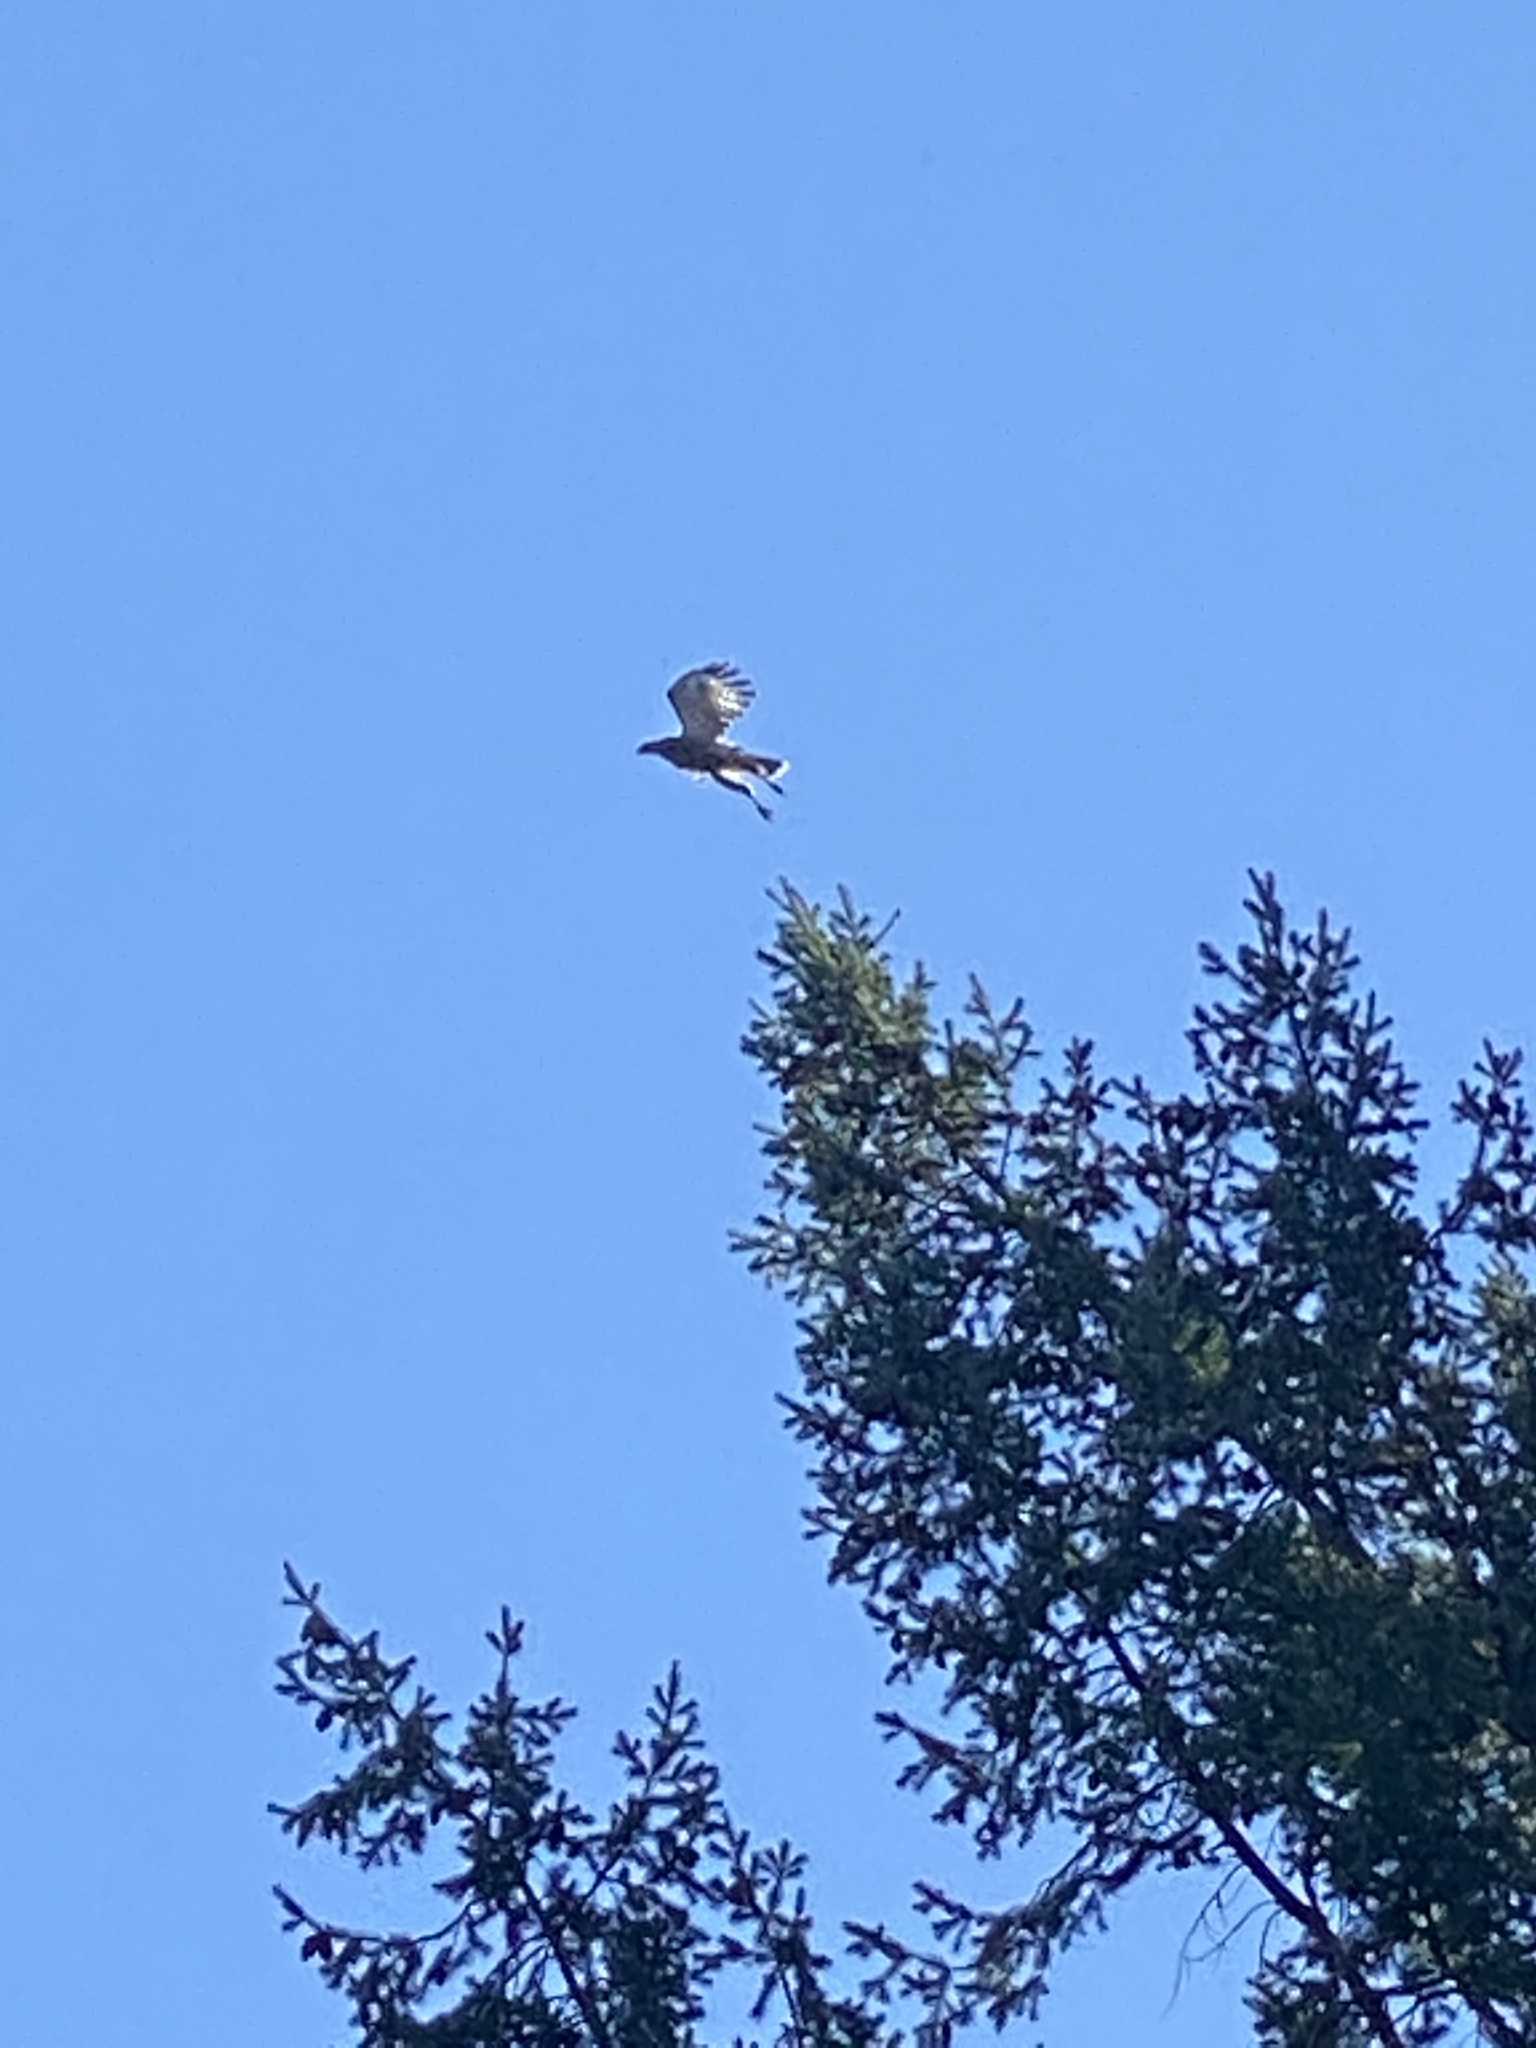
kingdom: Animalia
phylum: Chordata
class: Aves
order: Accipitriformes
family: Accipitridae
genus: Buteo
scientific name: Buteo lineatus
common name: Red-shouldered hawk
